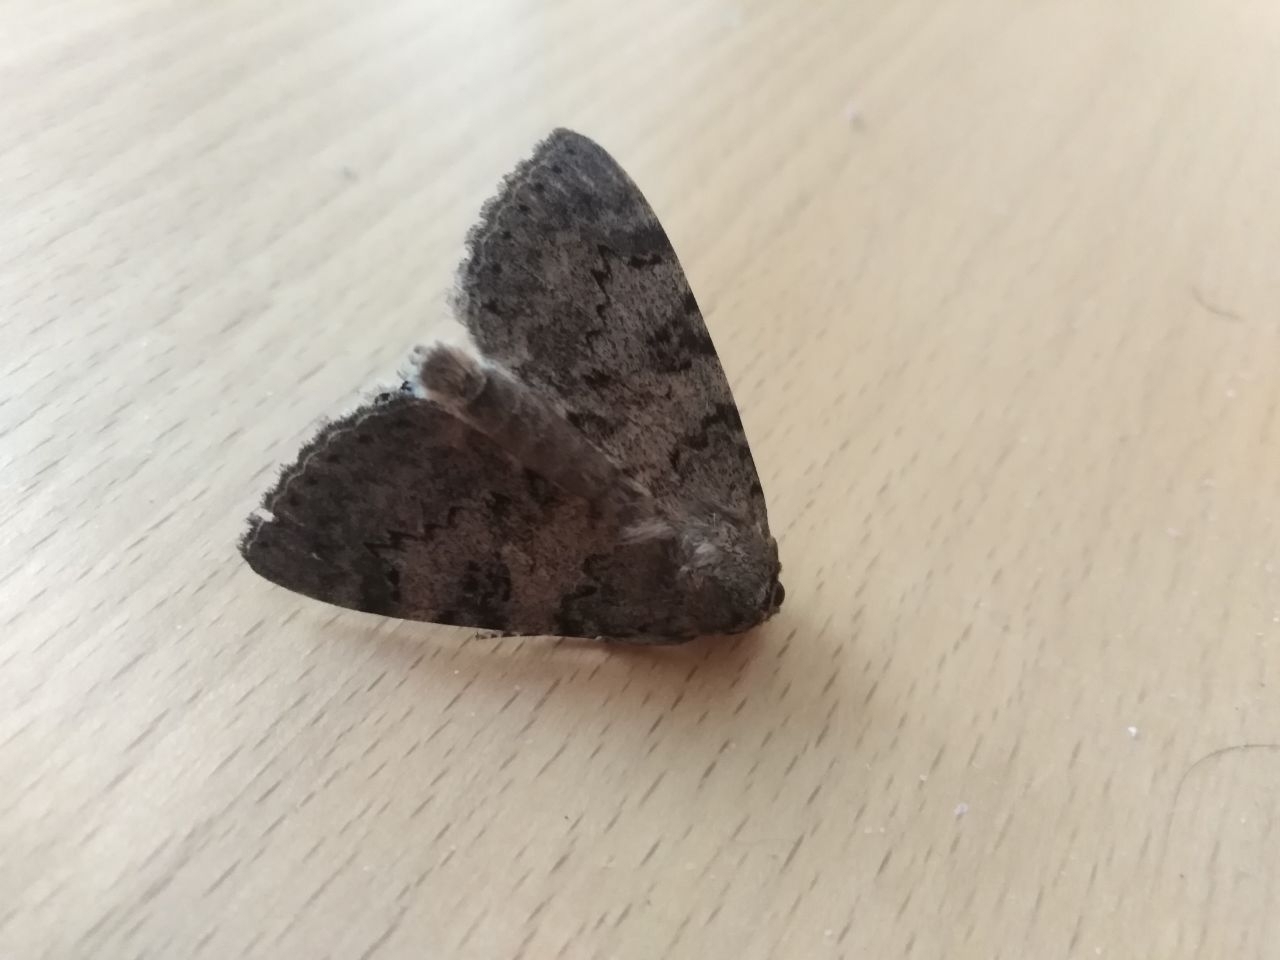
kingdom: Animalia
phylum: Arthropoda
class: Insecta
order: Lepidoptera
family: Erebidae
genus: Catocala
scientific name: Catocala puerpera
